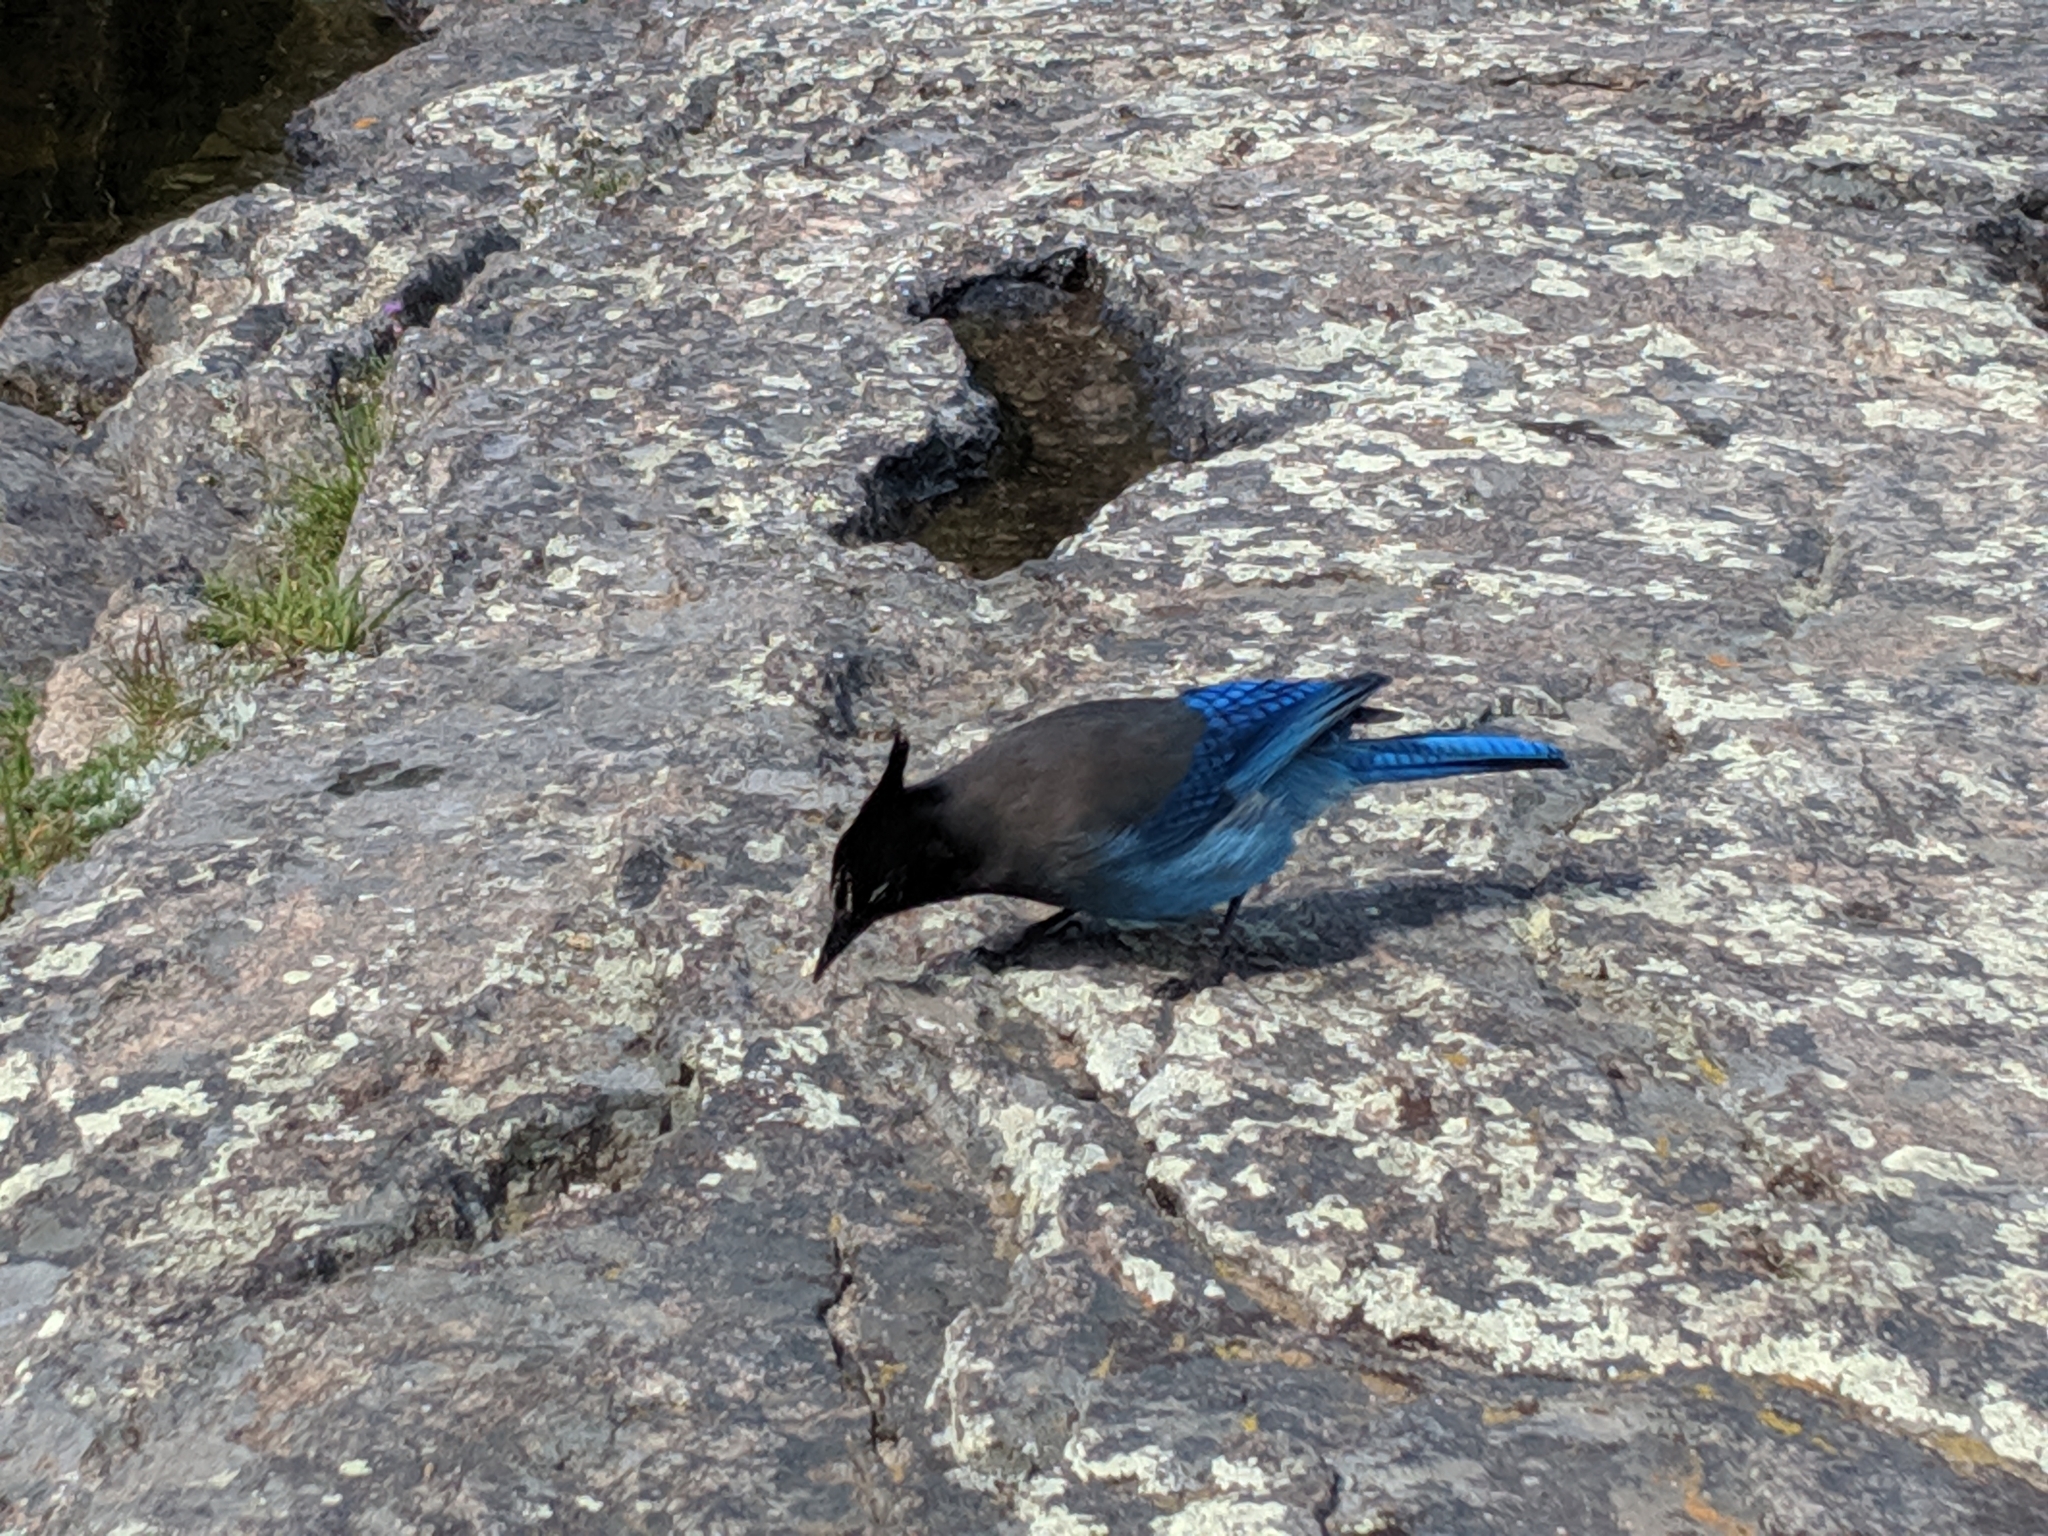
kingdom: Animalia
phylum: Chordata
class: Aves
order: Passeriformes
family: Corvidae
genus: Cyanocitta
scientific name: Cyanocitta stelleri
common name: Steller's jay
